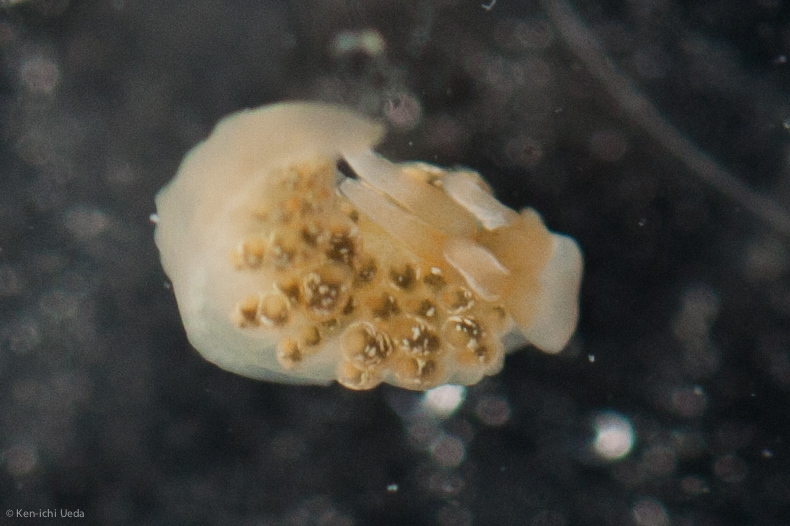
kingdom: Animalia
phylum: Mollusca
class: Gastropoda
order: Nudibranchia
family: Trinchesiidae
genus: Diaphoreolis
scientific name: Diaphoreolis flavovulta
